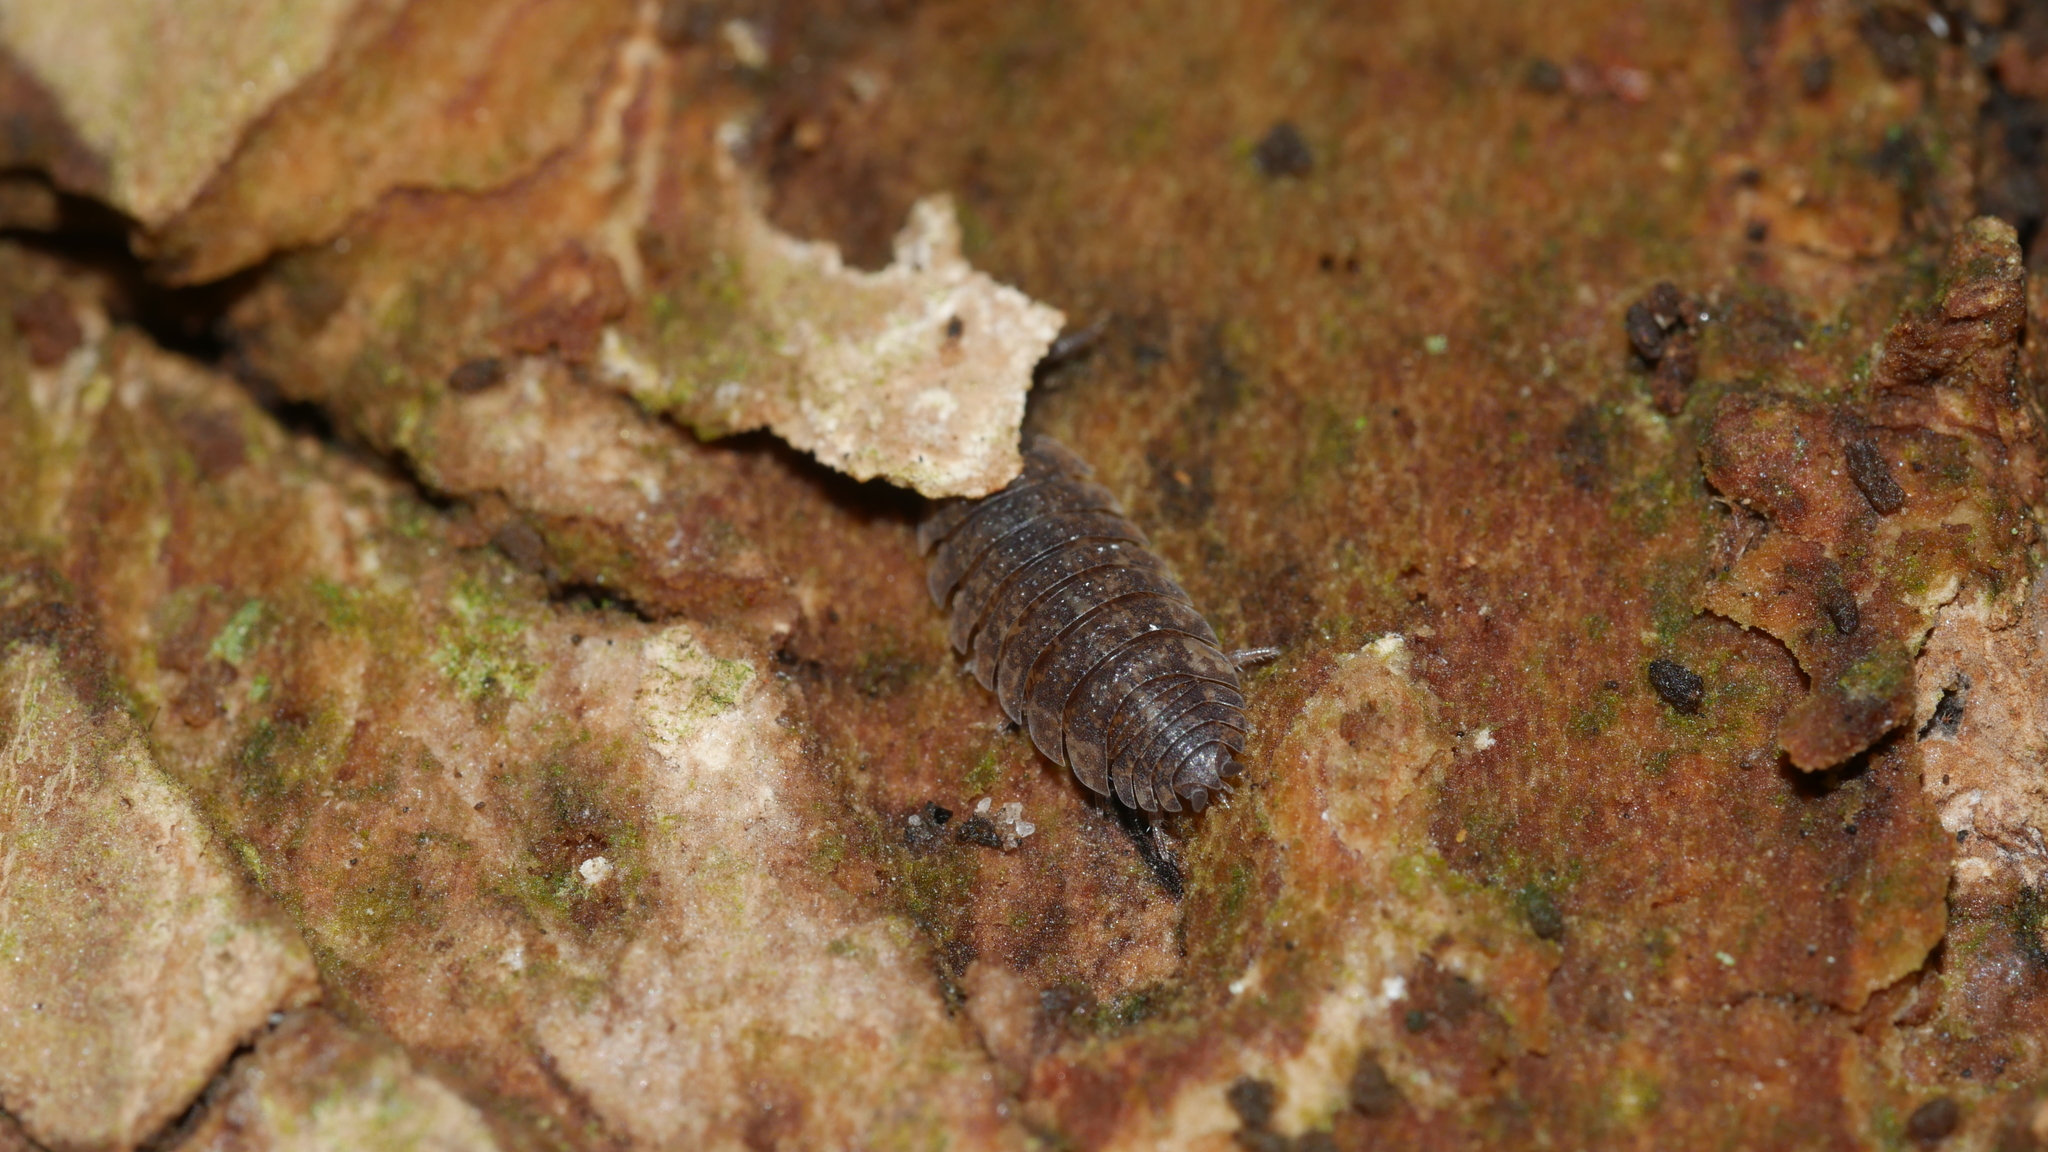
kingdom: Animalia
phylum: Arthropoda
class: Malacostraca
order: Isopoda
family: Porcellionidae
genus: Porcellio
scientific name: Porcellio scaber
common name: Common rough woodlouse
